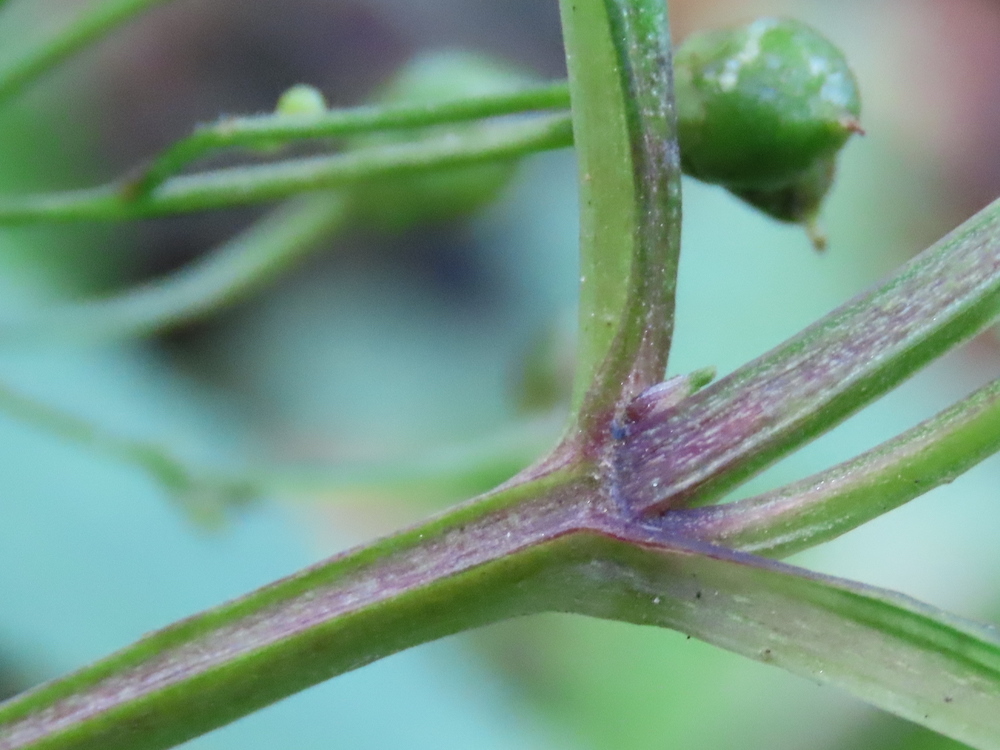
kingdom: Plantae
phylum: Tracheophyta
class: Magnoliopsida
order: Lamiales
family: Scrophulariaceae
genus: Scrophularia
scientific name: Scrophularia nodosa
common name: Common figwort
